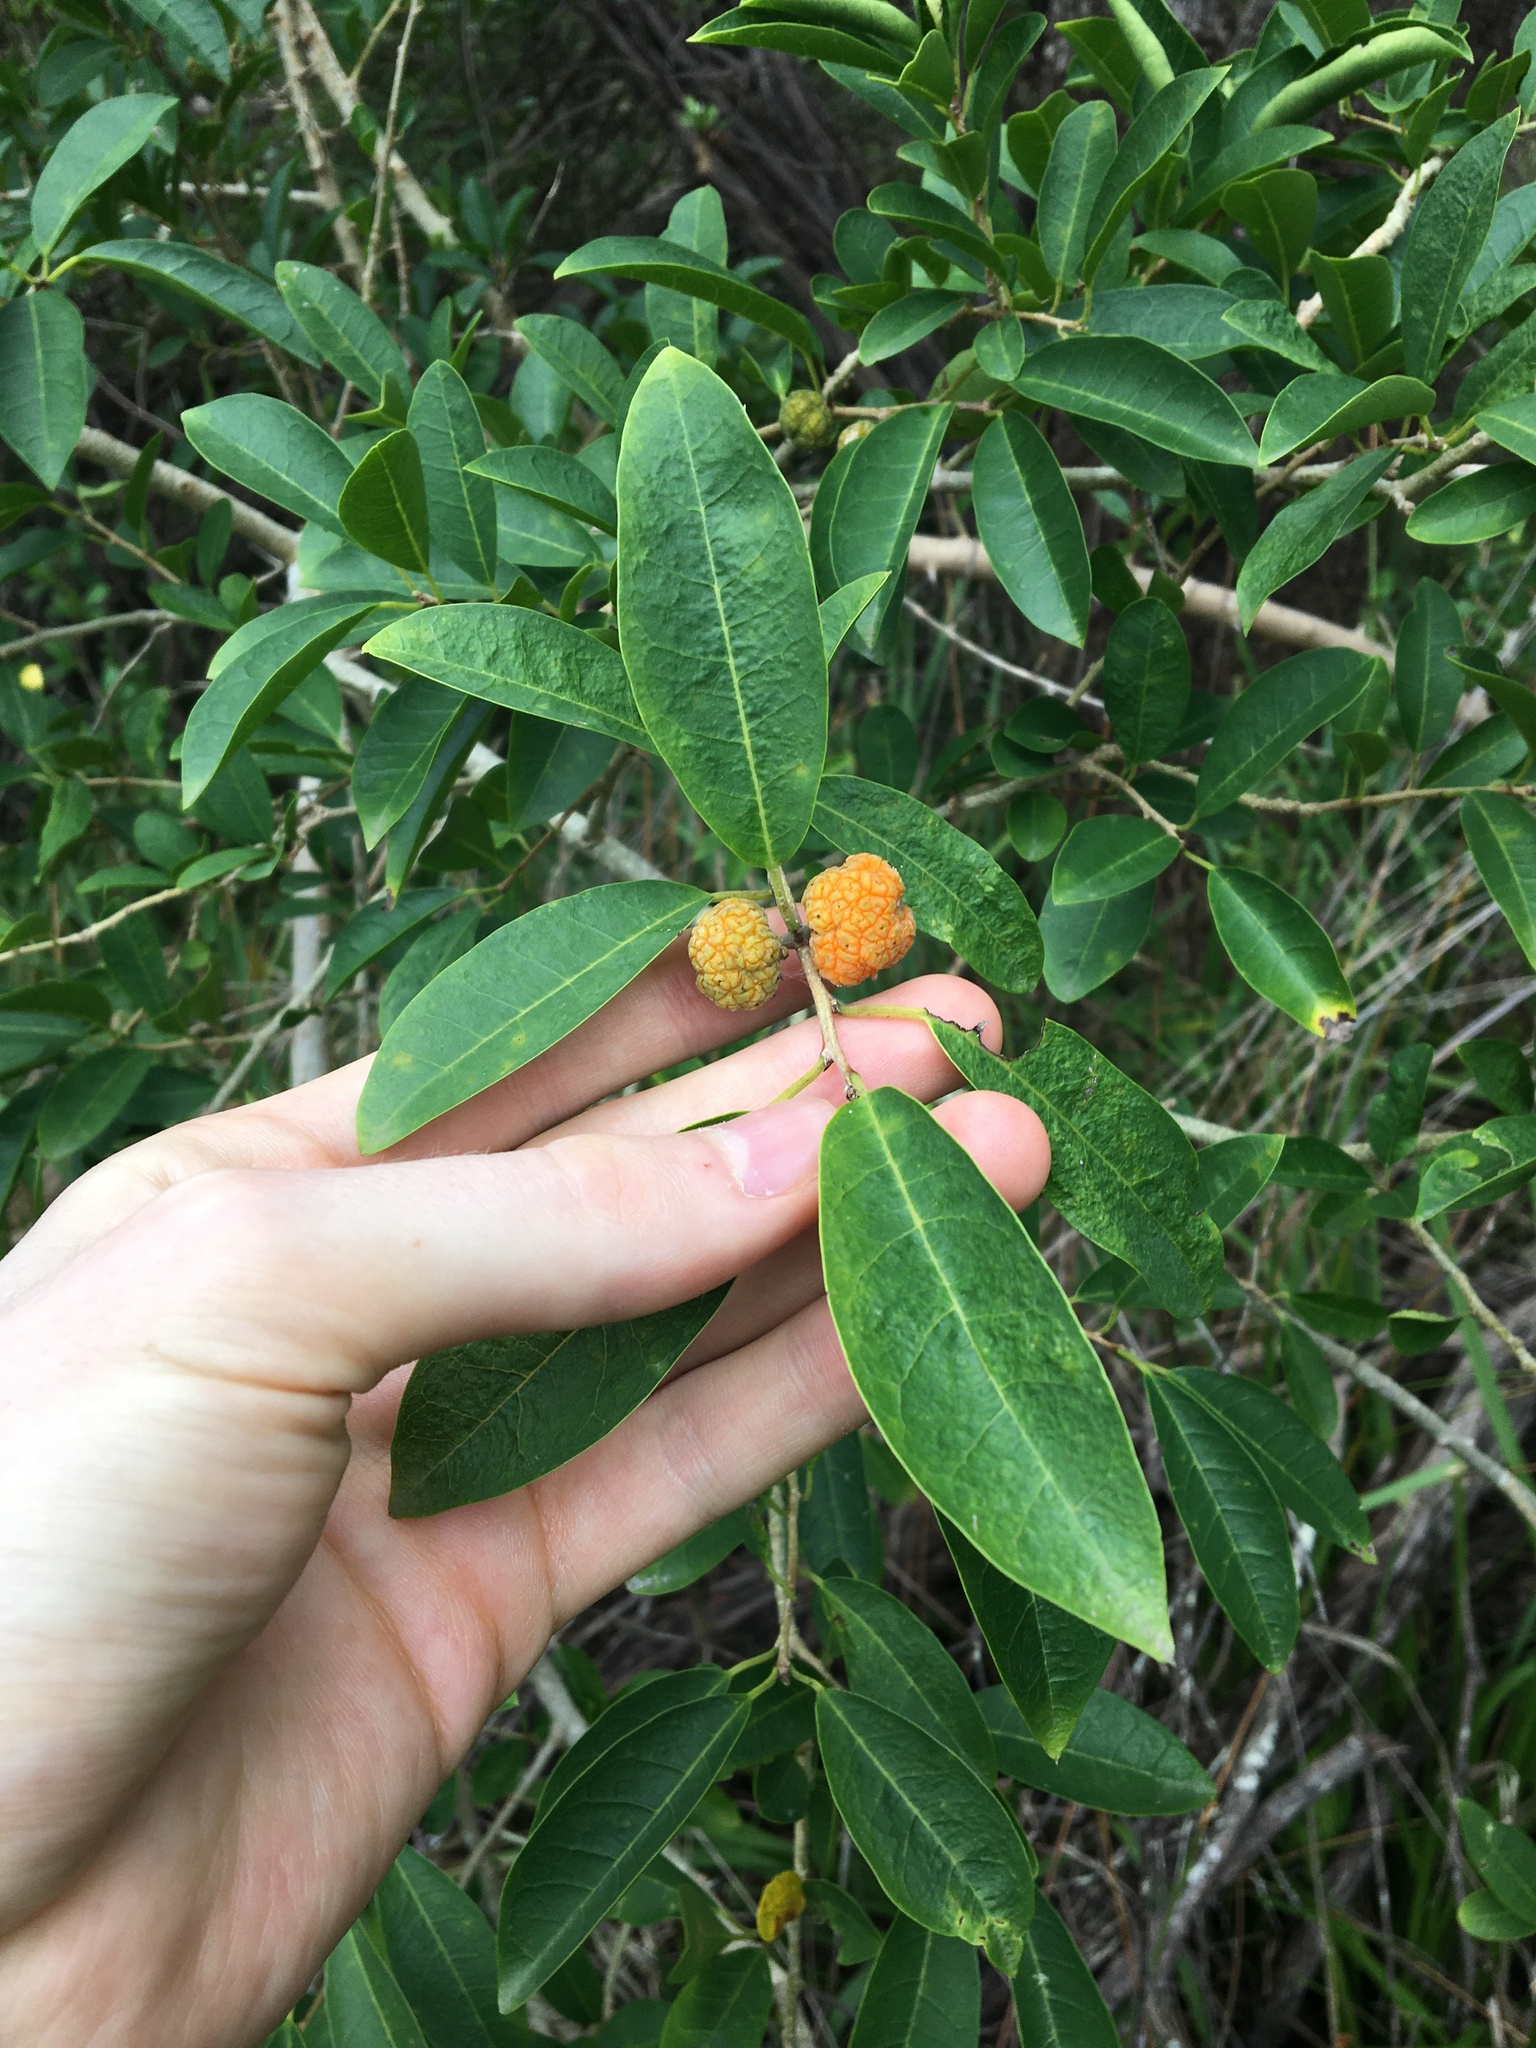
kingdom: Plantae
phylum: Tracheophyta
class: Magnoliopsida
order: Rosales
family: Moraceae
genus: Maclura
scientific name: Maclura cochinchinensis
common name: Cockspurthorn
